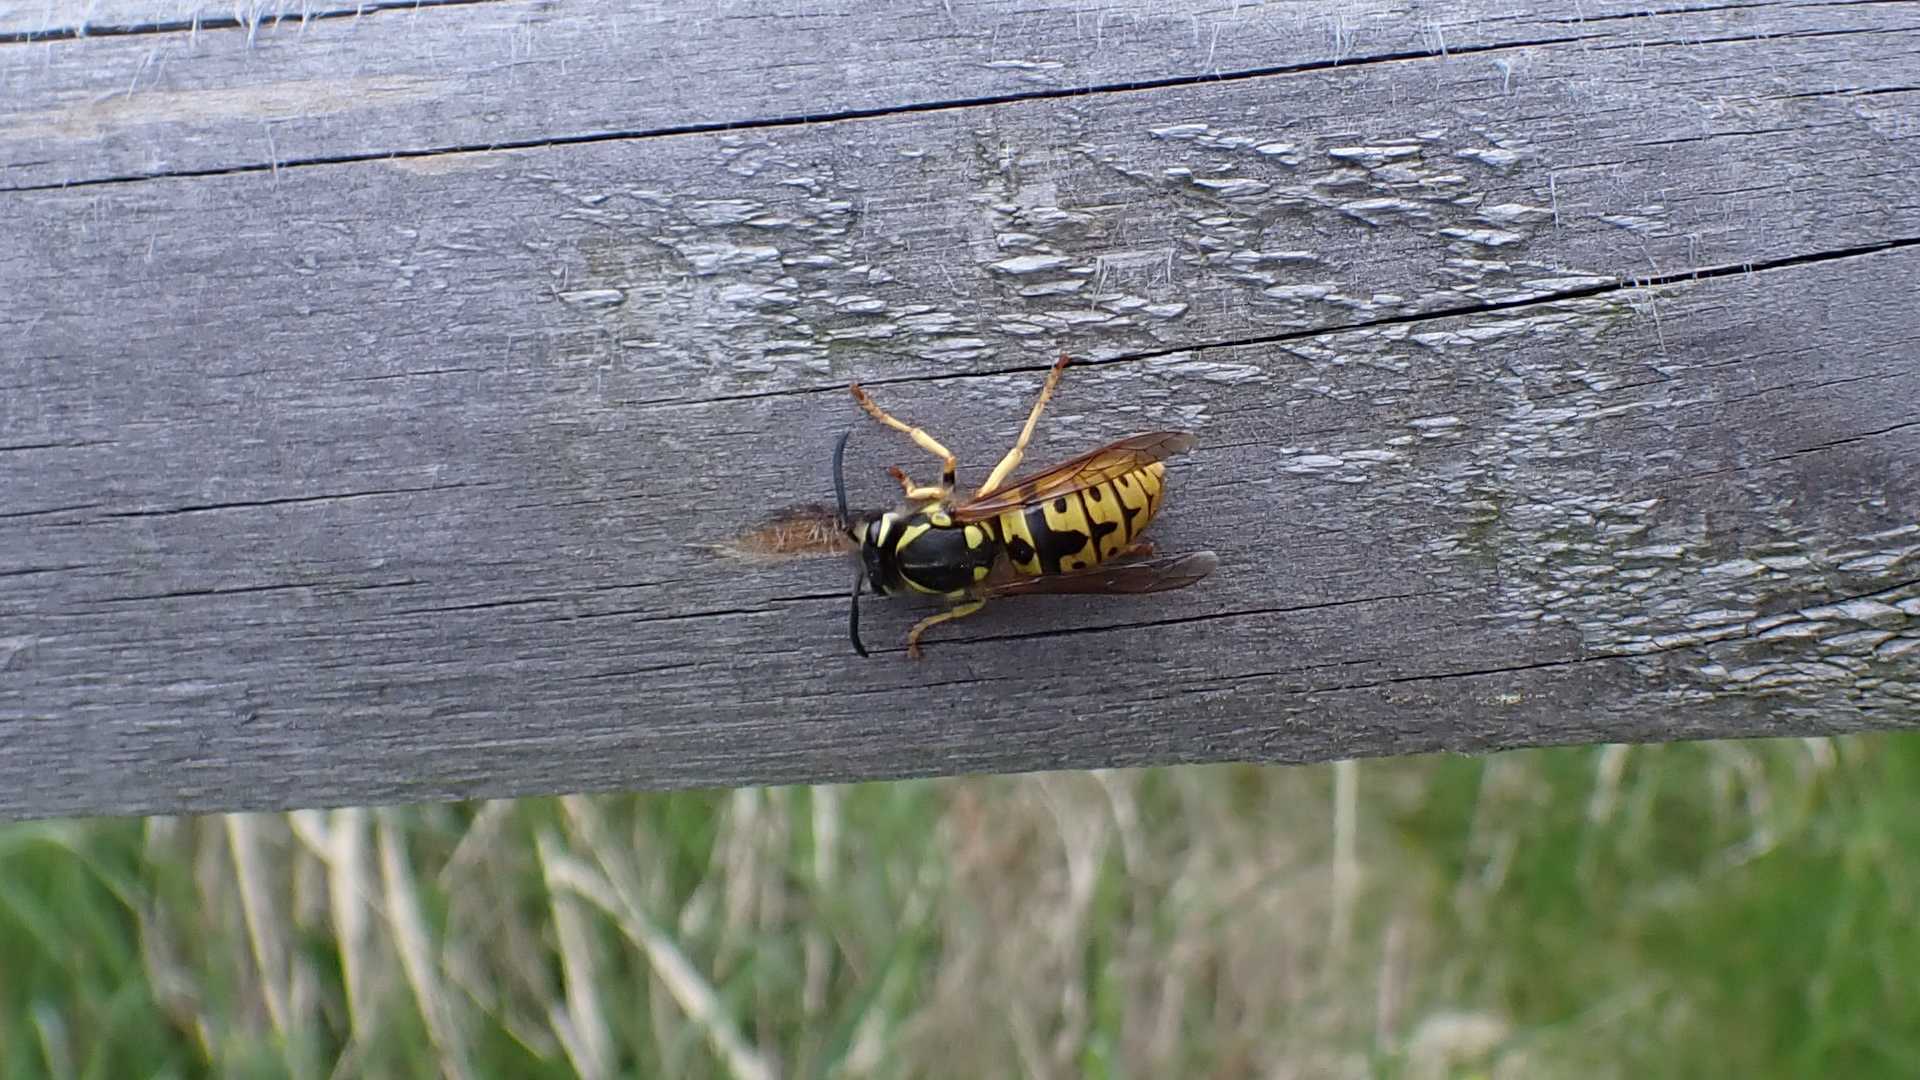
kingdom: Animalia
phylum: Arthropoda
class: Insecta
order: Hymenoptera
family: Vespidae
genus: Vespula
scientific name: Vespula germanica
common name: German wasp
